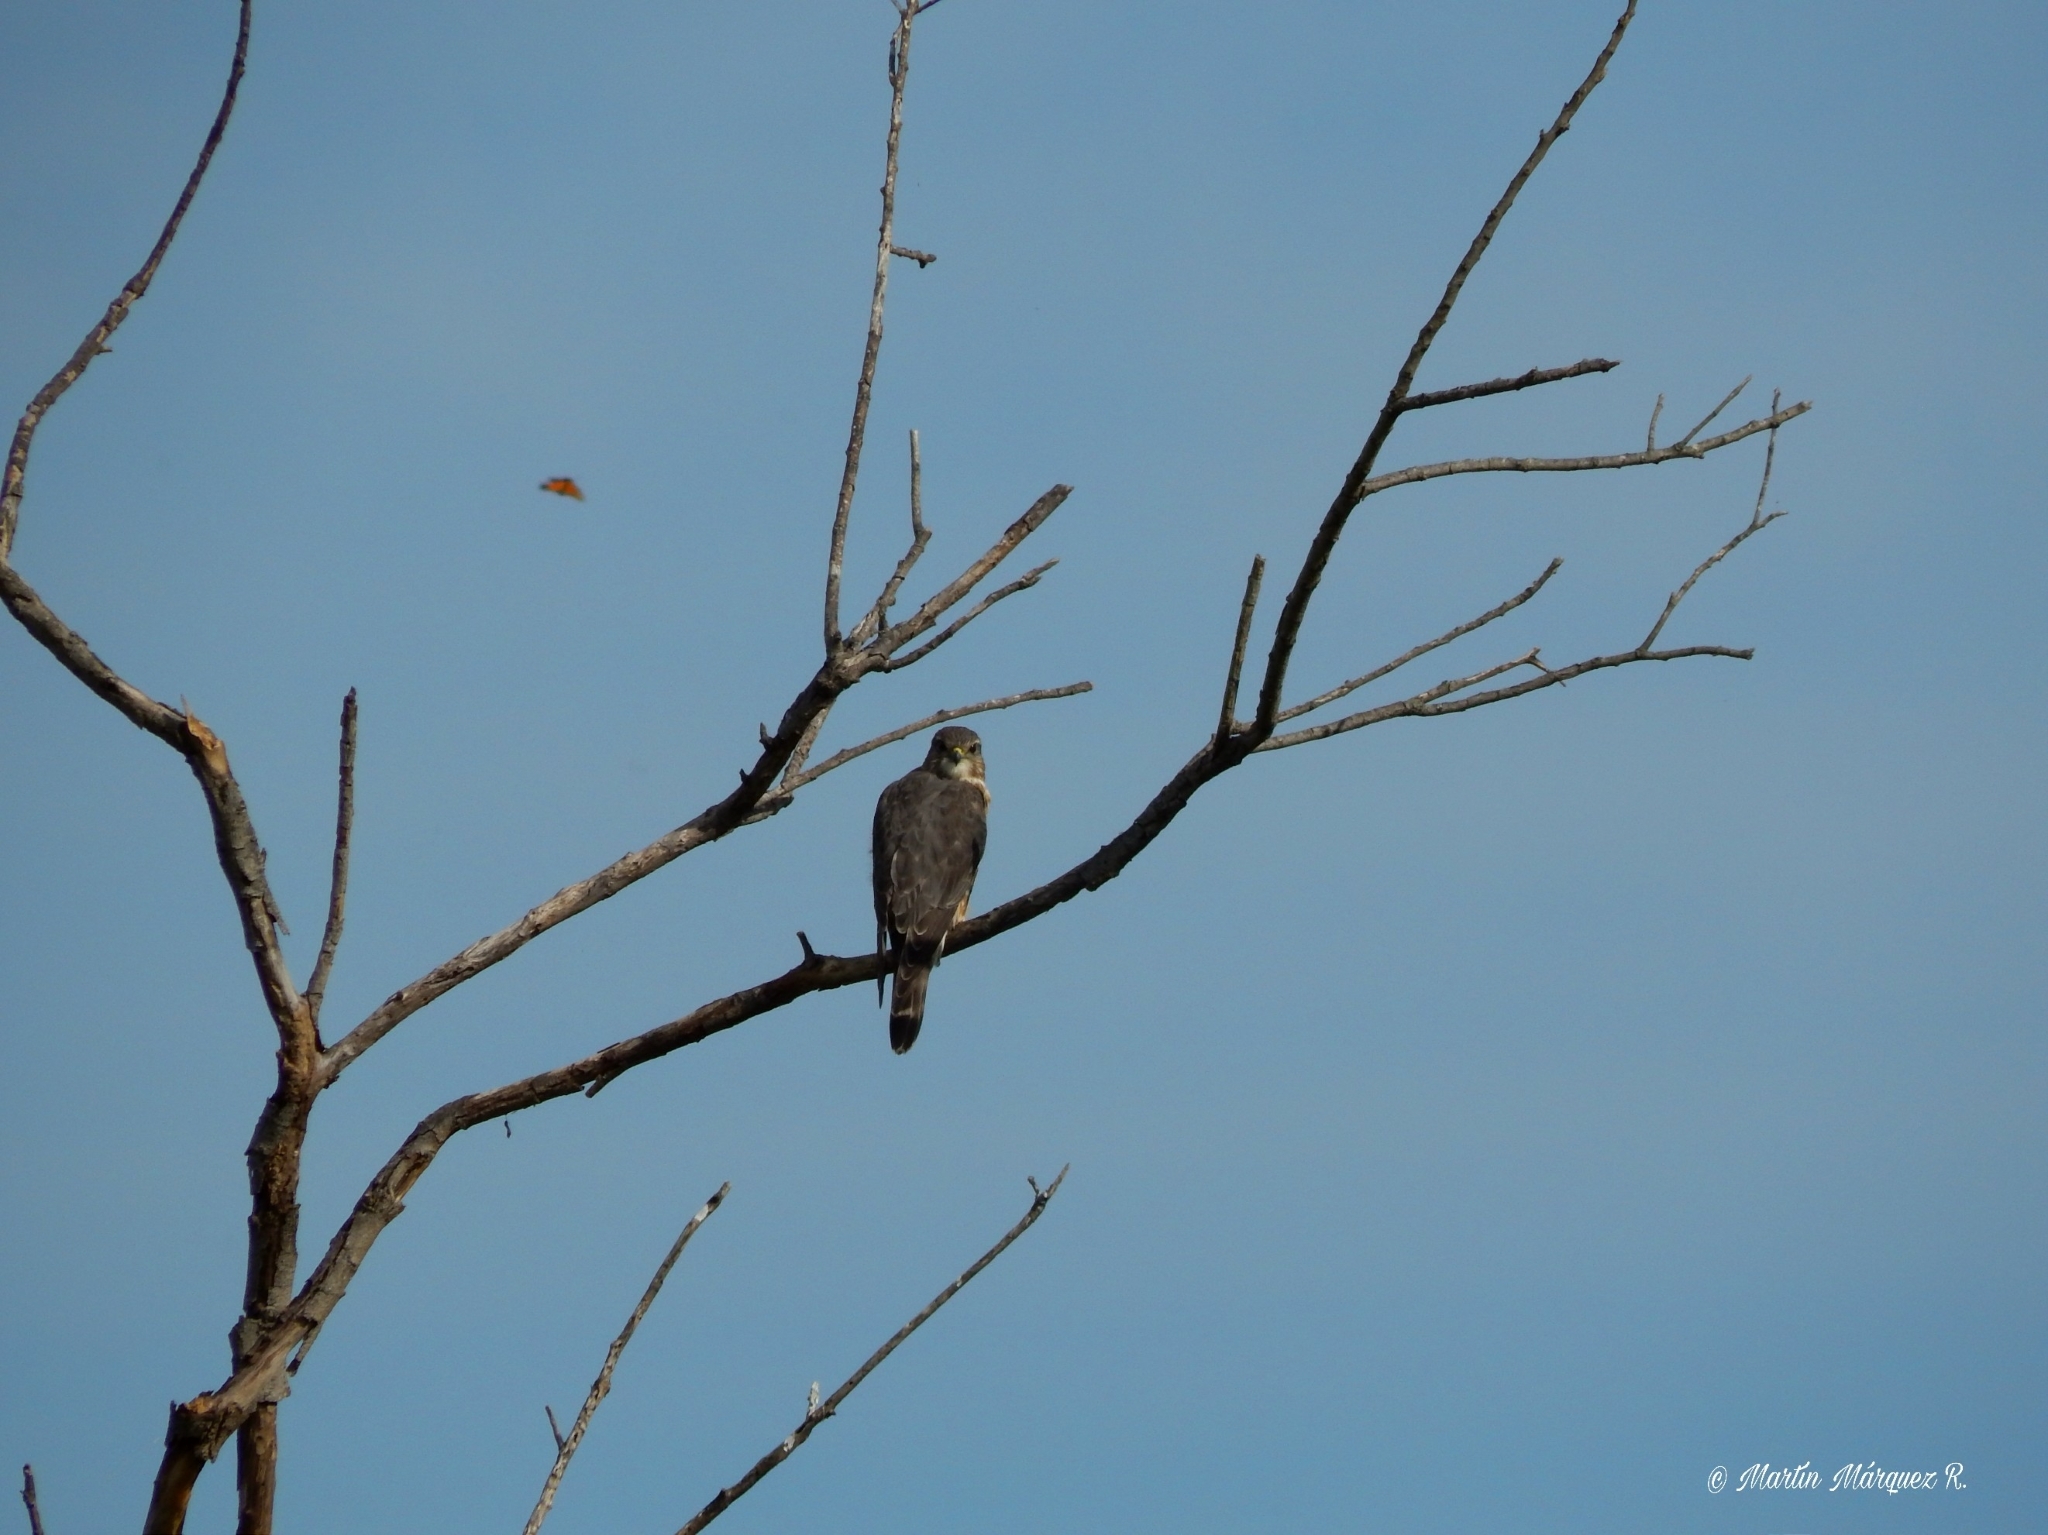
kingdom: Animalia
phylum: Chordata
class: Aves
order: Falconiformes
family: Falconidae
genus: Falco
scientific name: Falco columbarius
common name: Merlin
